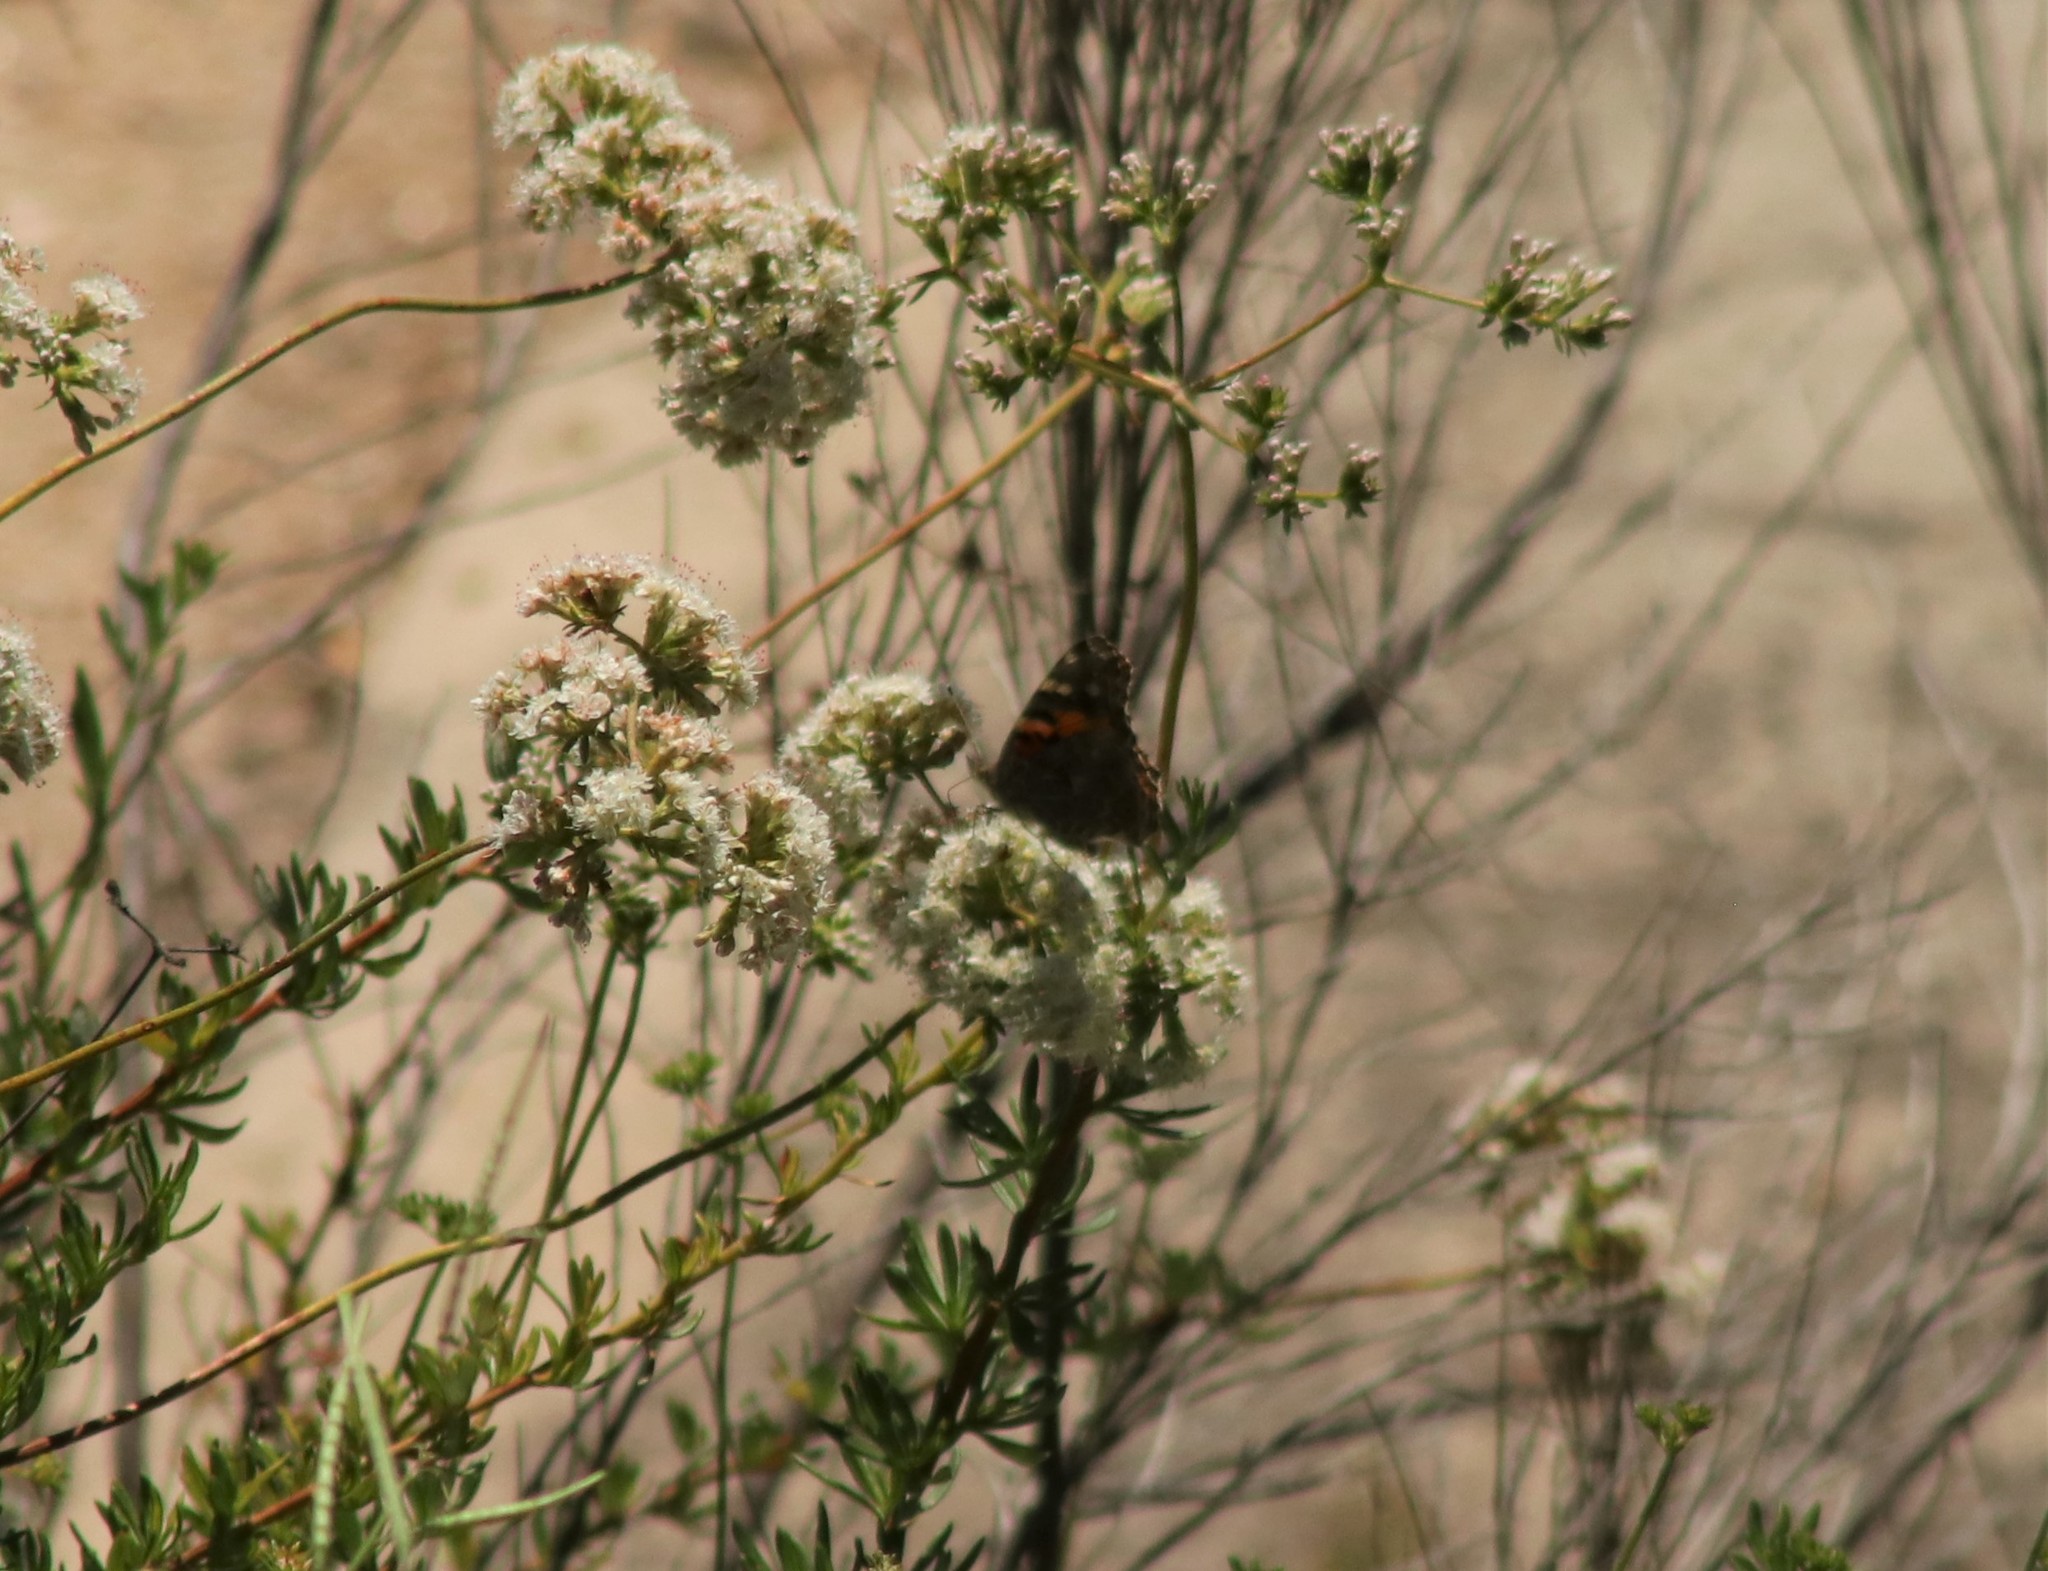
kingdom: Animalia
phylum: Arthropoda
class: Insecta
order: Lepidoptera
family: Nymphalidae
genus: Vanessa
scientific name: Vanessa cardui
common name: Painted lady
